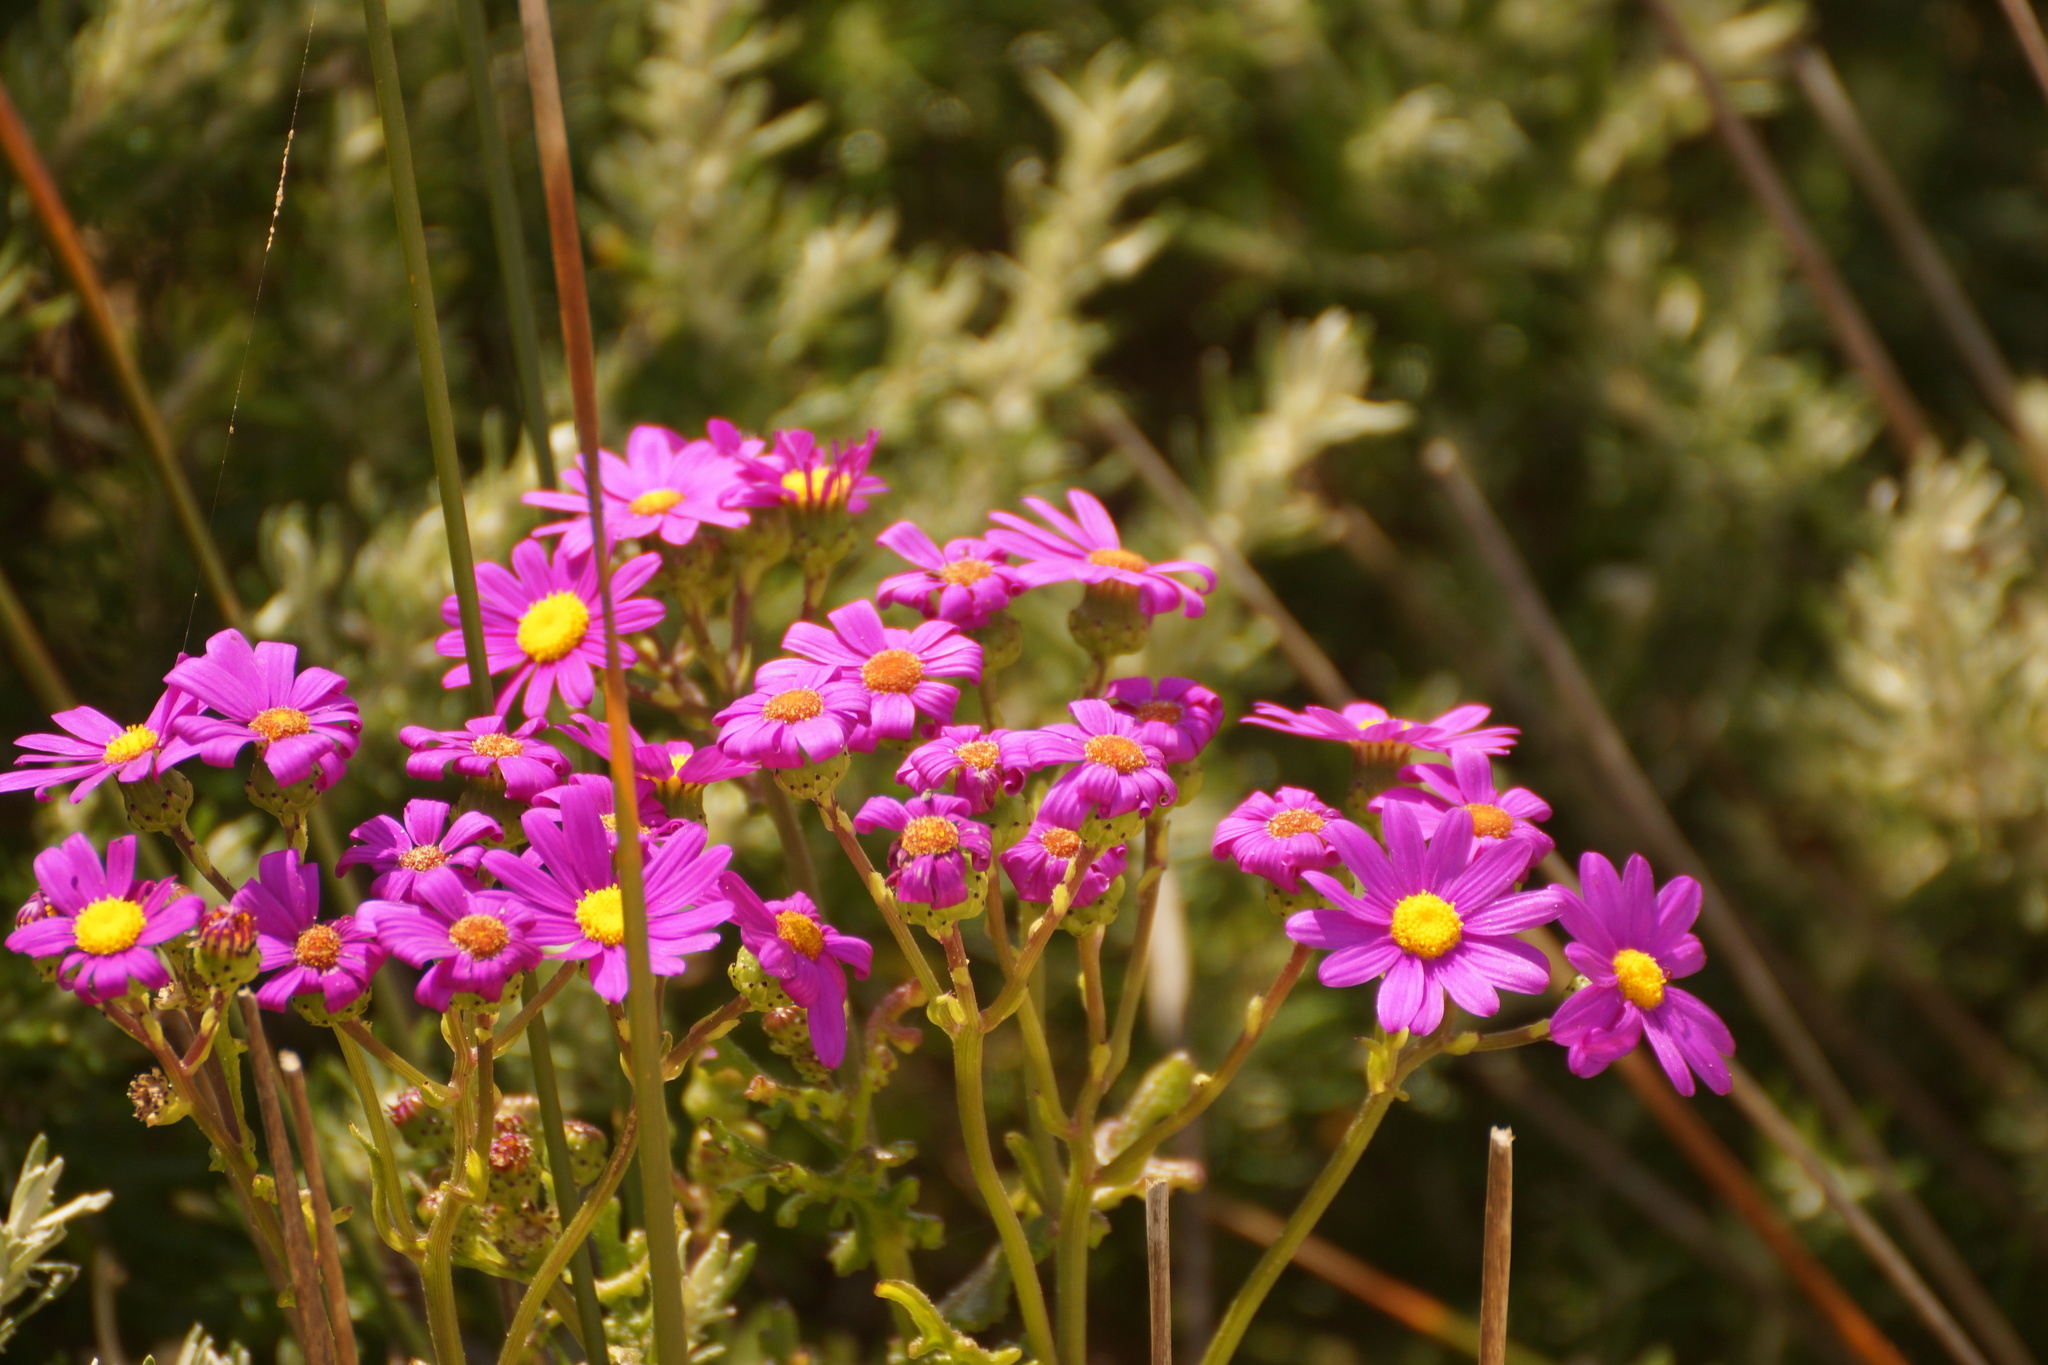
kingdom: Plantae
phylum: Tracheophyta
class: Magnoliopsida
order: Asterales
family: Asteraceae
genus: Senecio
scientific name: Senecio elegans
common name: Purple groundsel
